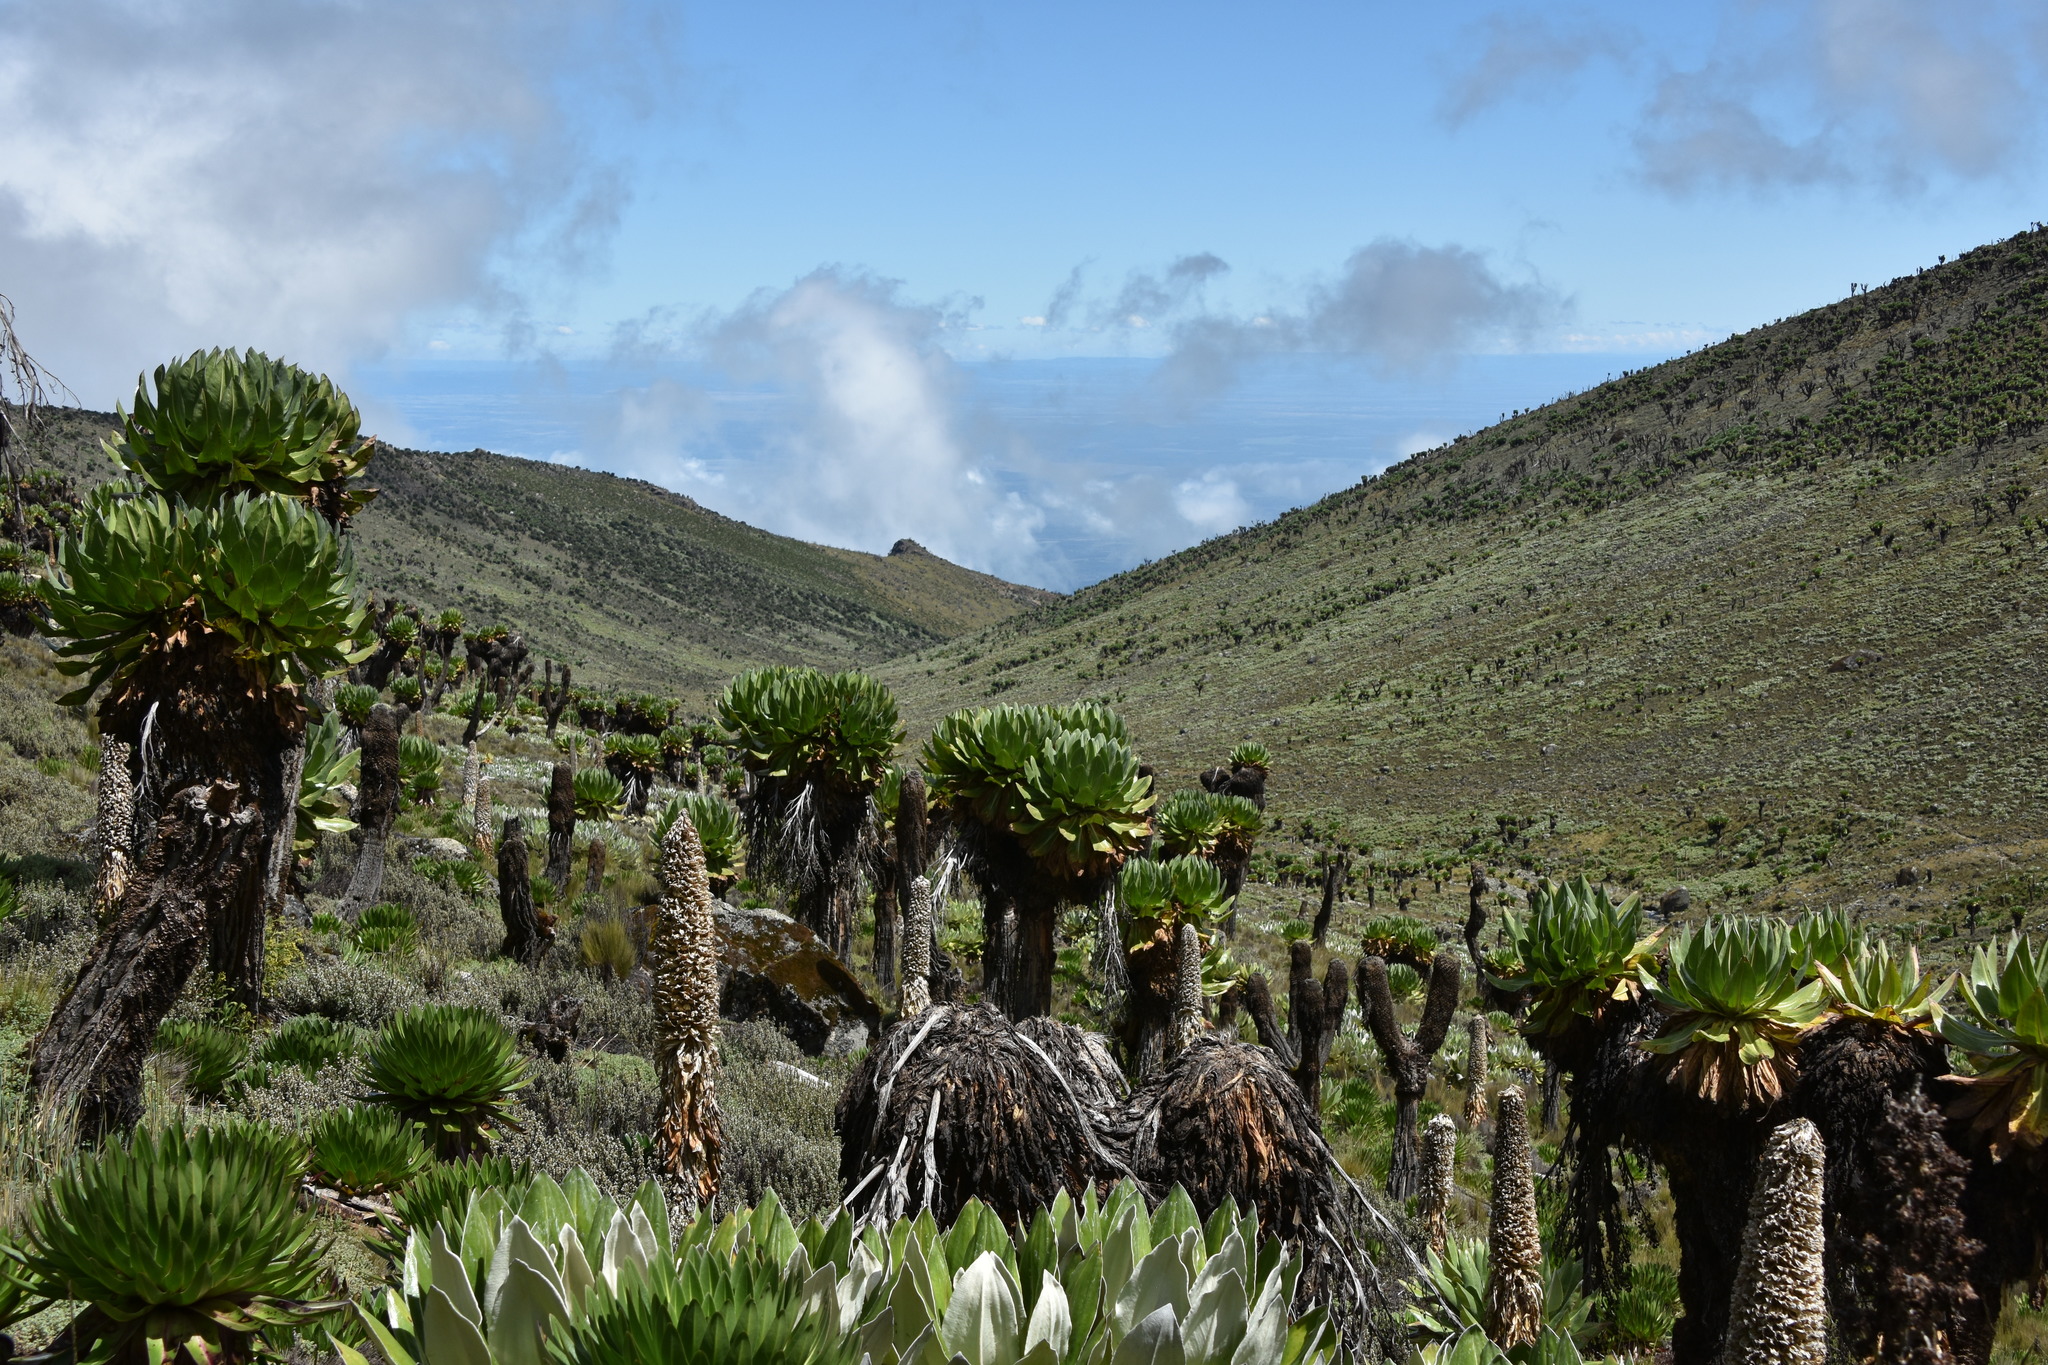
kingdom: Plantae
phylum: Tracheophyta
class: Magnoliopsida
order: Asterales
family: Asteraceae
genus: Dendrosenecio
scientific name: Dendrosenecio keniodendron
